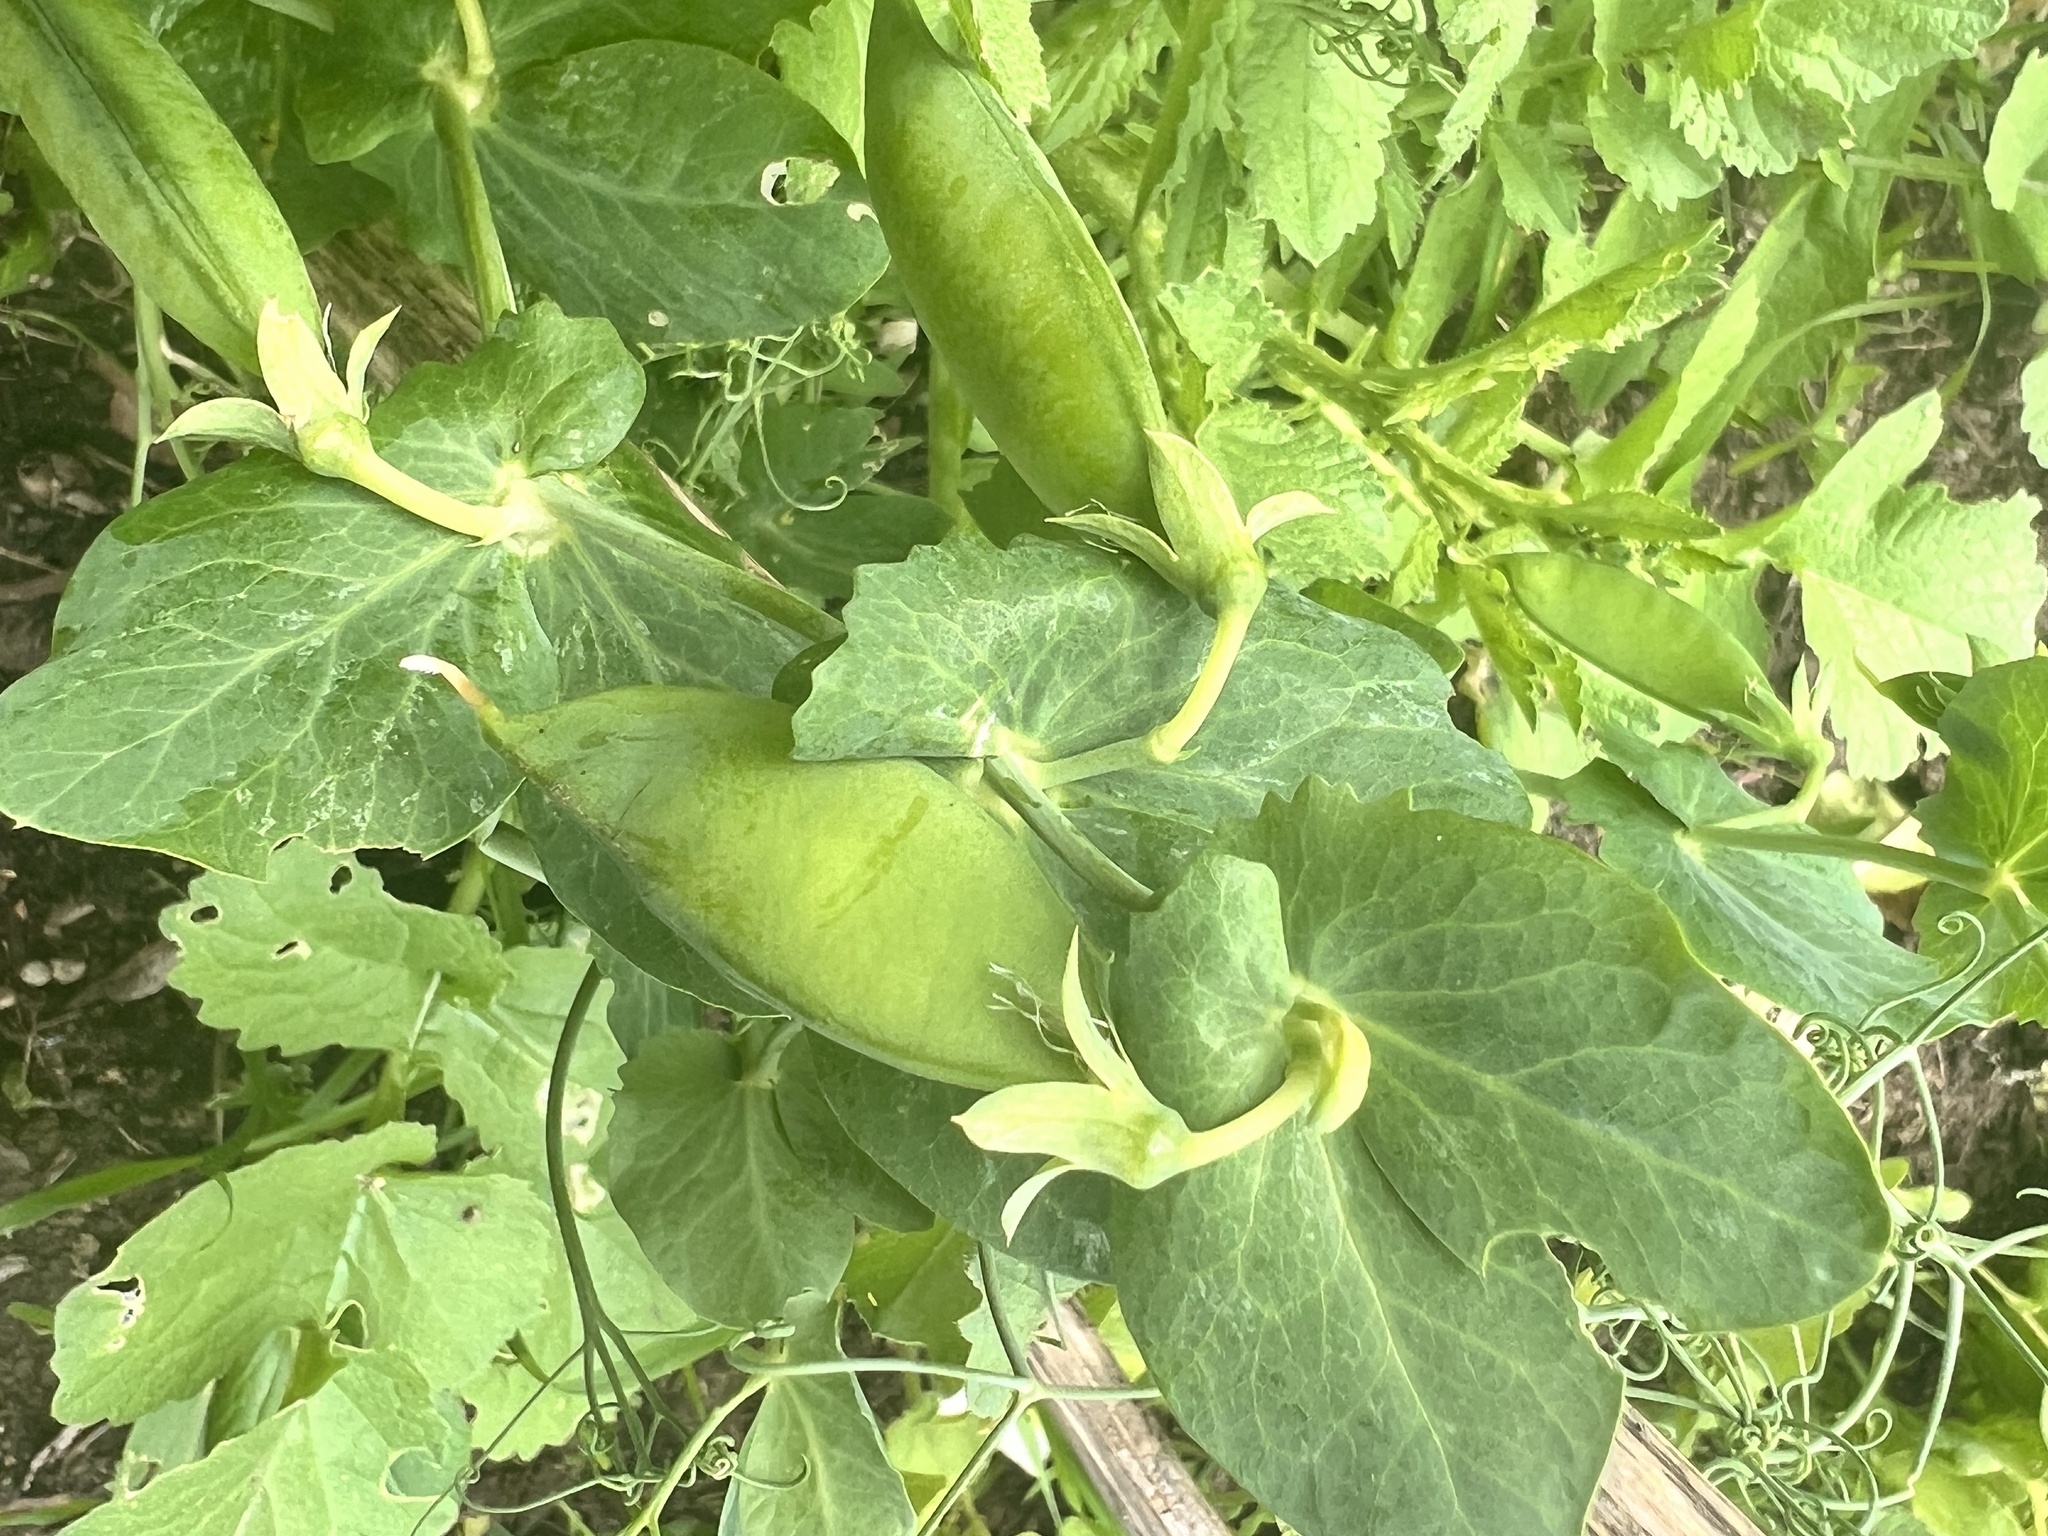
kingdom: Plantae
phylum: Tracheophyta
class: Magnoliopsida
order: Fabales
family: Fabaceae
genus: Lathyrus
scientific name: Lathyrus oleraceus
